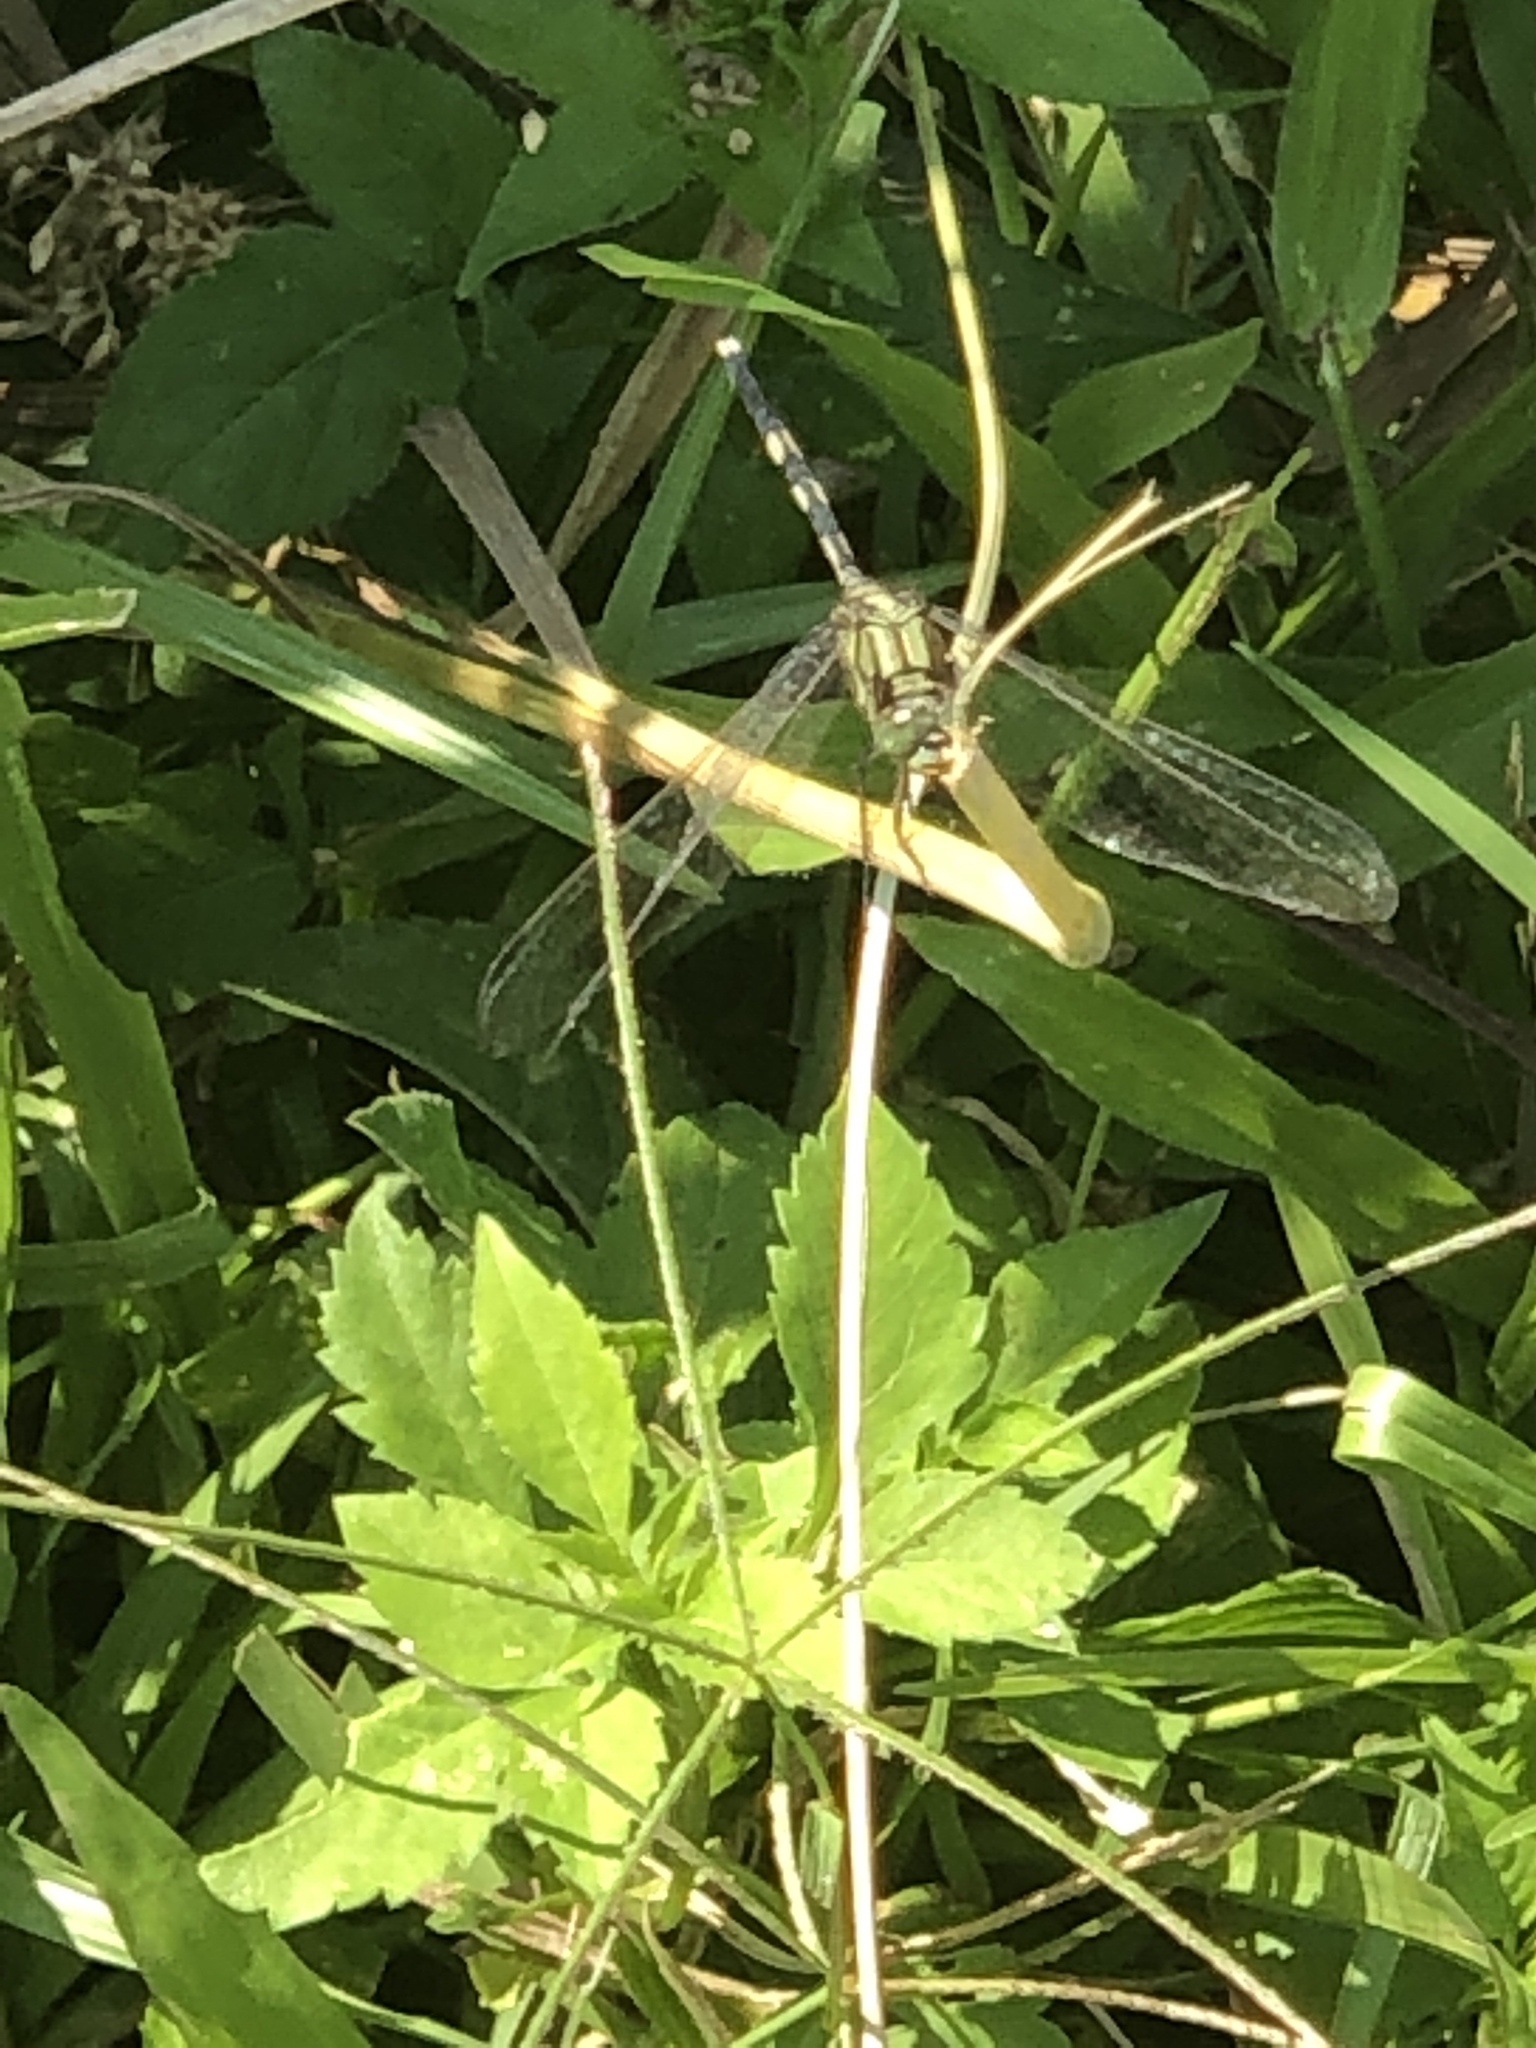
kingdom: Animalia
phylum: Arthropoda
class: Insecta
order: Odonata
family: Libellulidae
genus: Orthetrum
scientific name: Orthetrum sabina
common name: Slender skimmer
